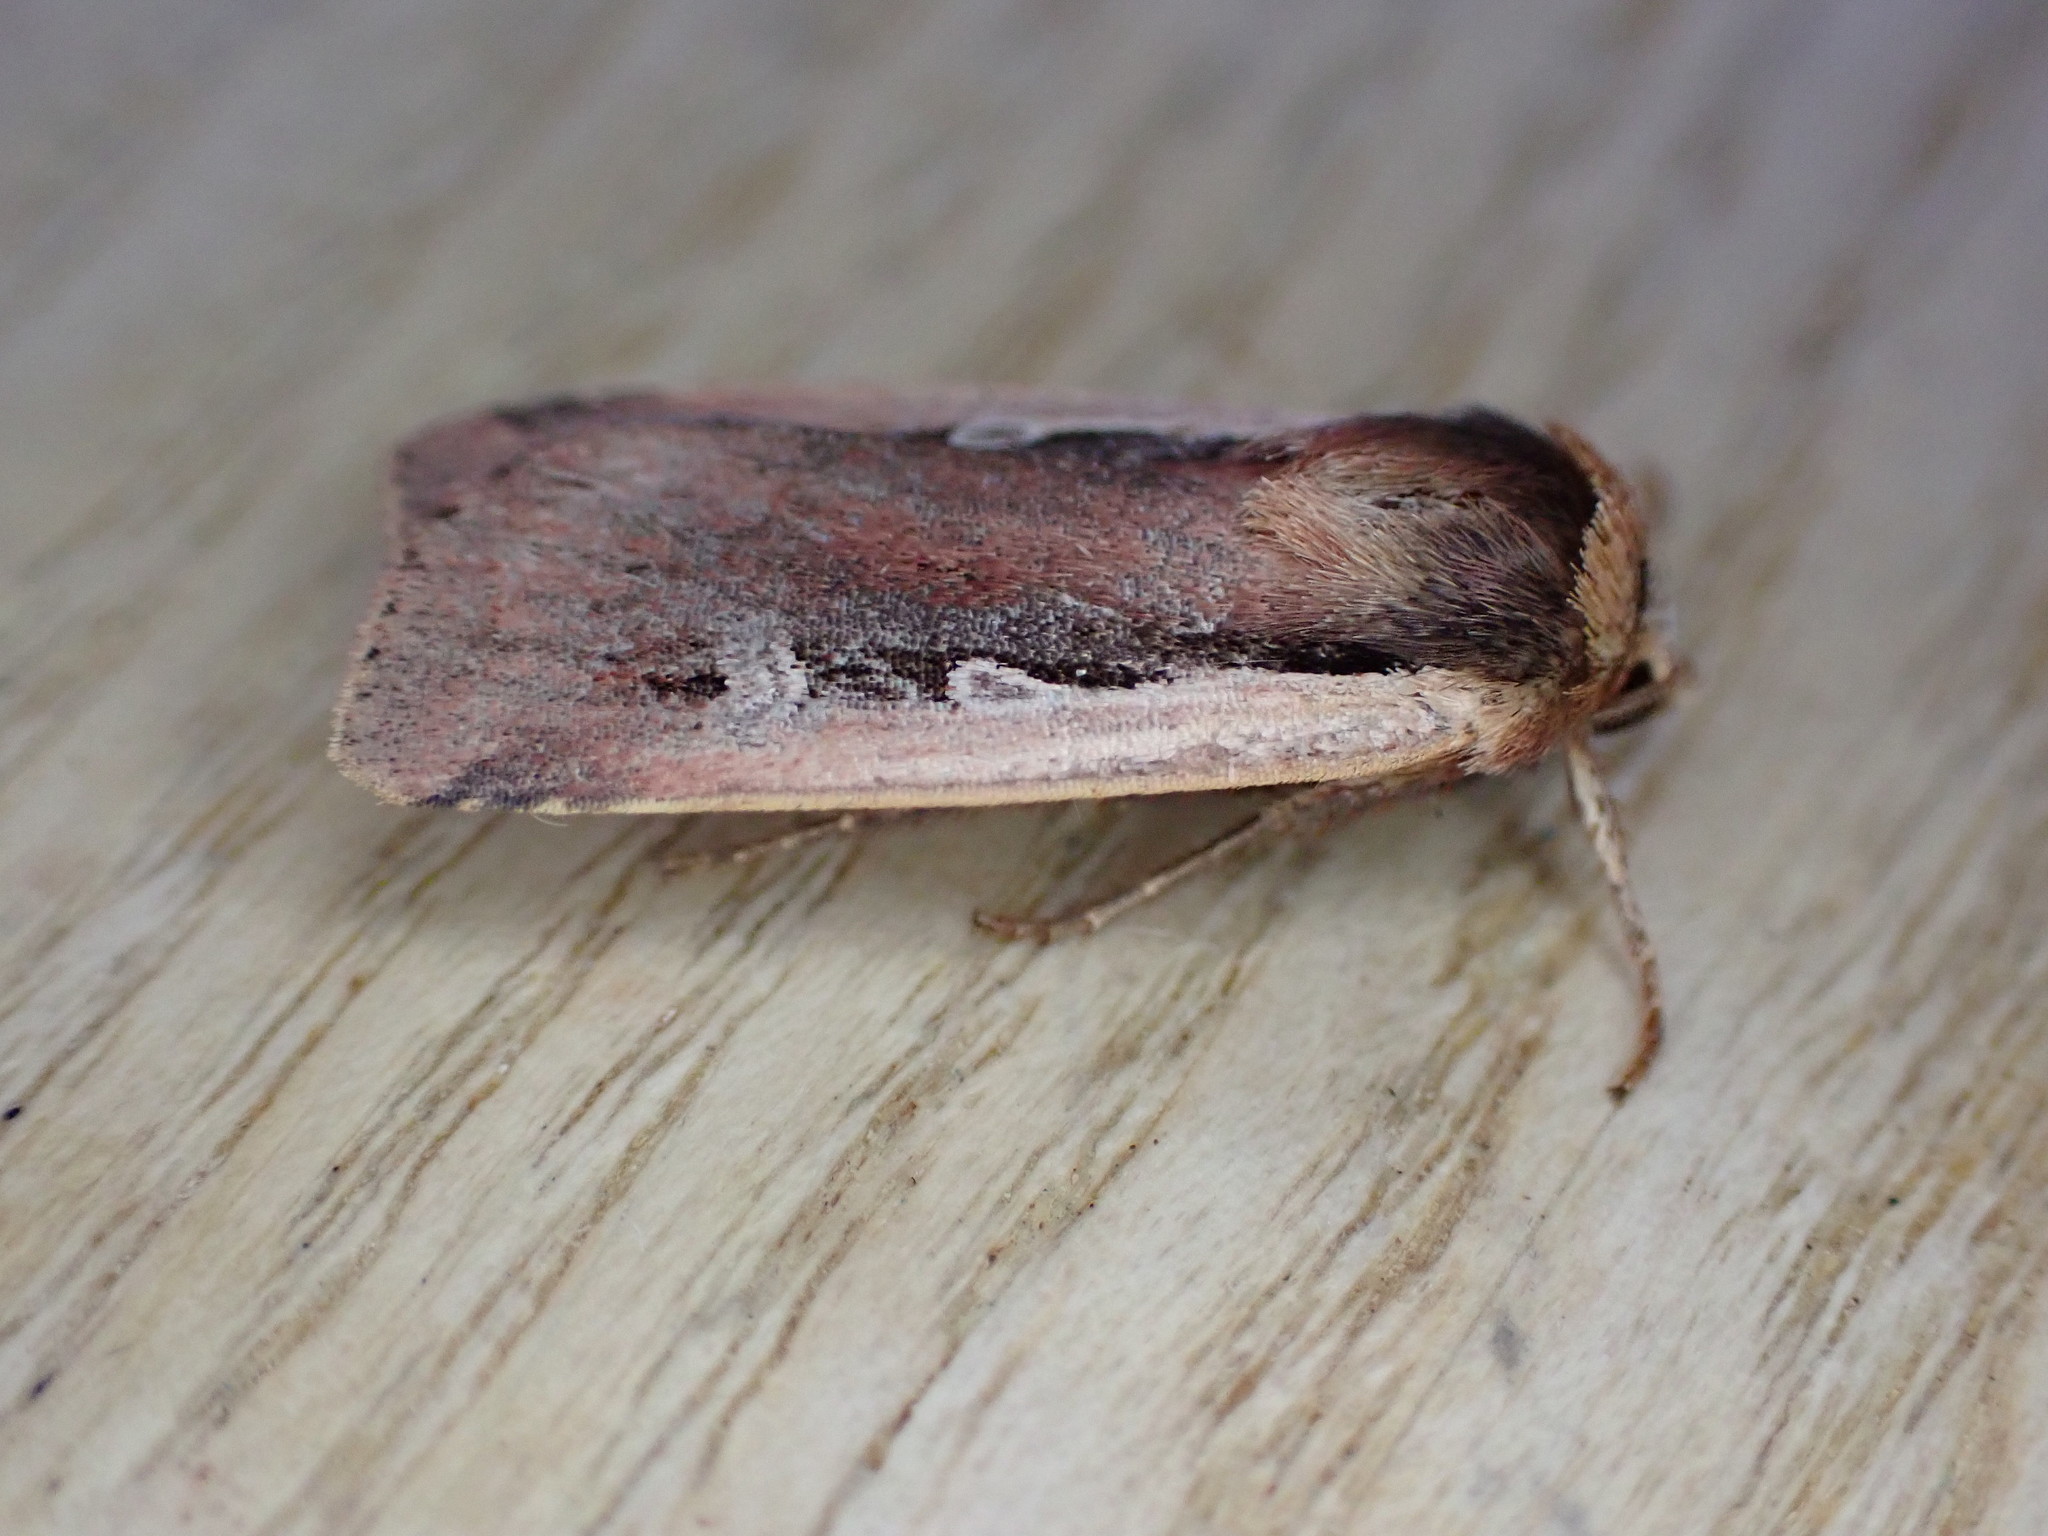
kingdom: Animalia
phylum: Arthropoda
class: Insecta
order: Lepidoptera
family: Noctuidae
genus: Ochropleura
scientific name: Ochropleura plecta
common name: Flame shoulder
